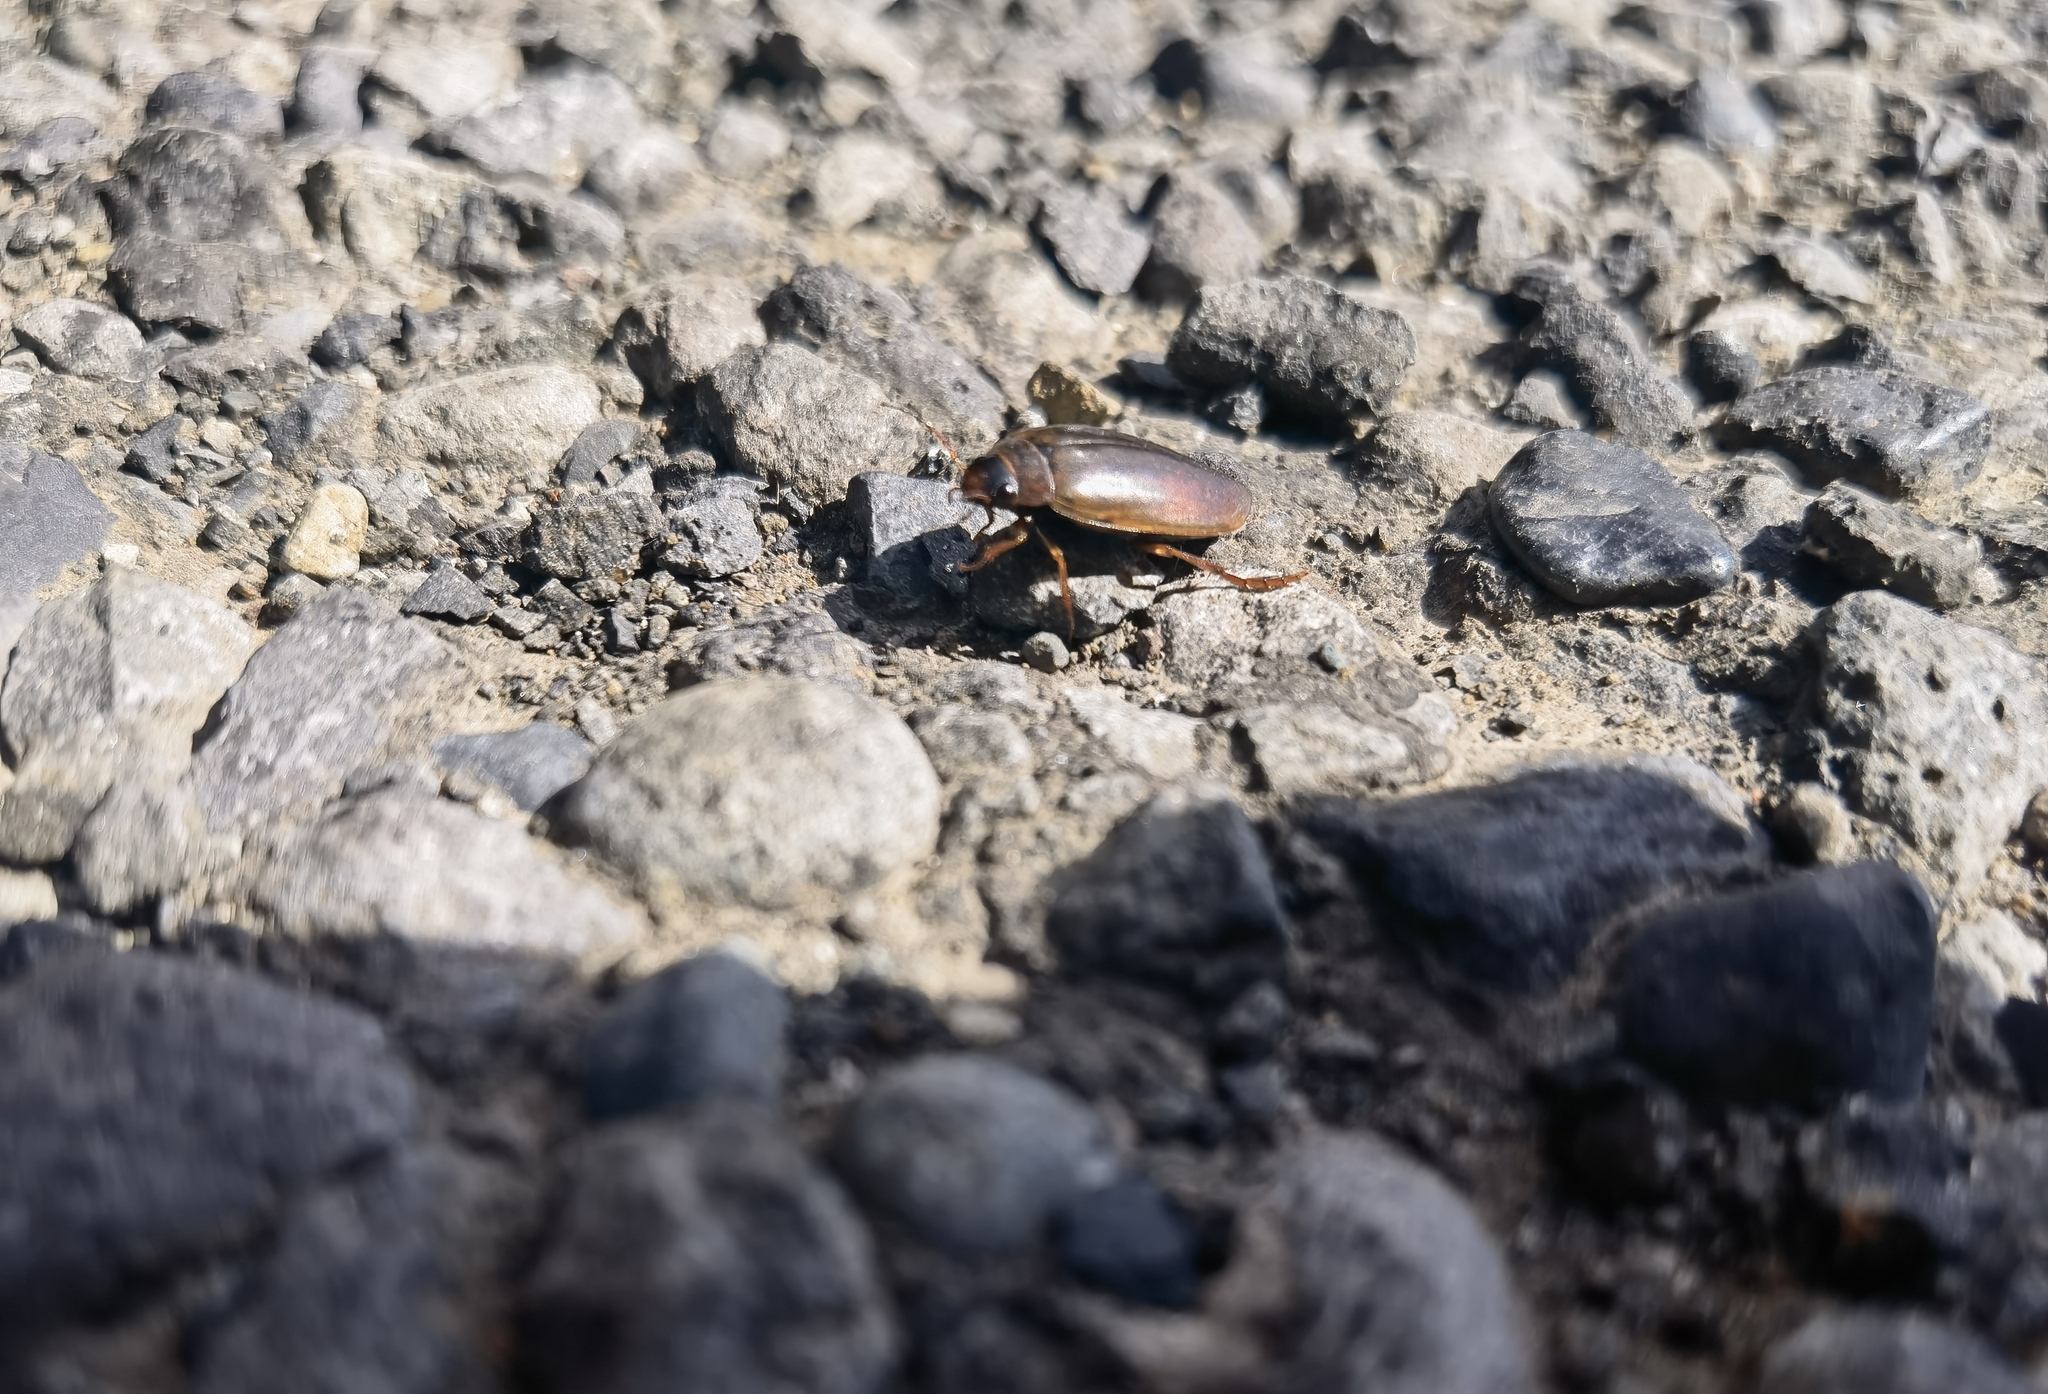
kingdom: Animalia
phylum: Arthropoda
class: Insecta
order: Coleoptera
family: Dytiscidae
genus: Colymbetes
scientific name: Colymbetes dolabratus
